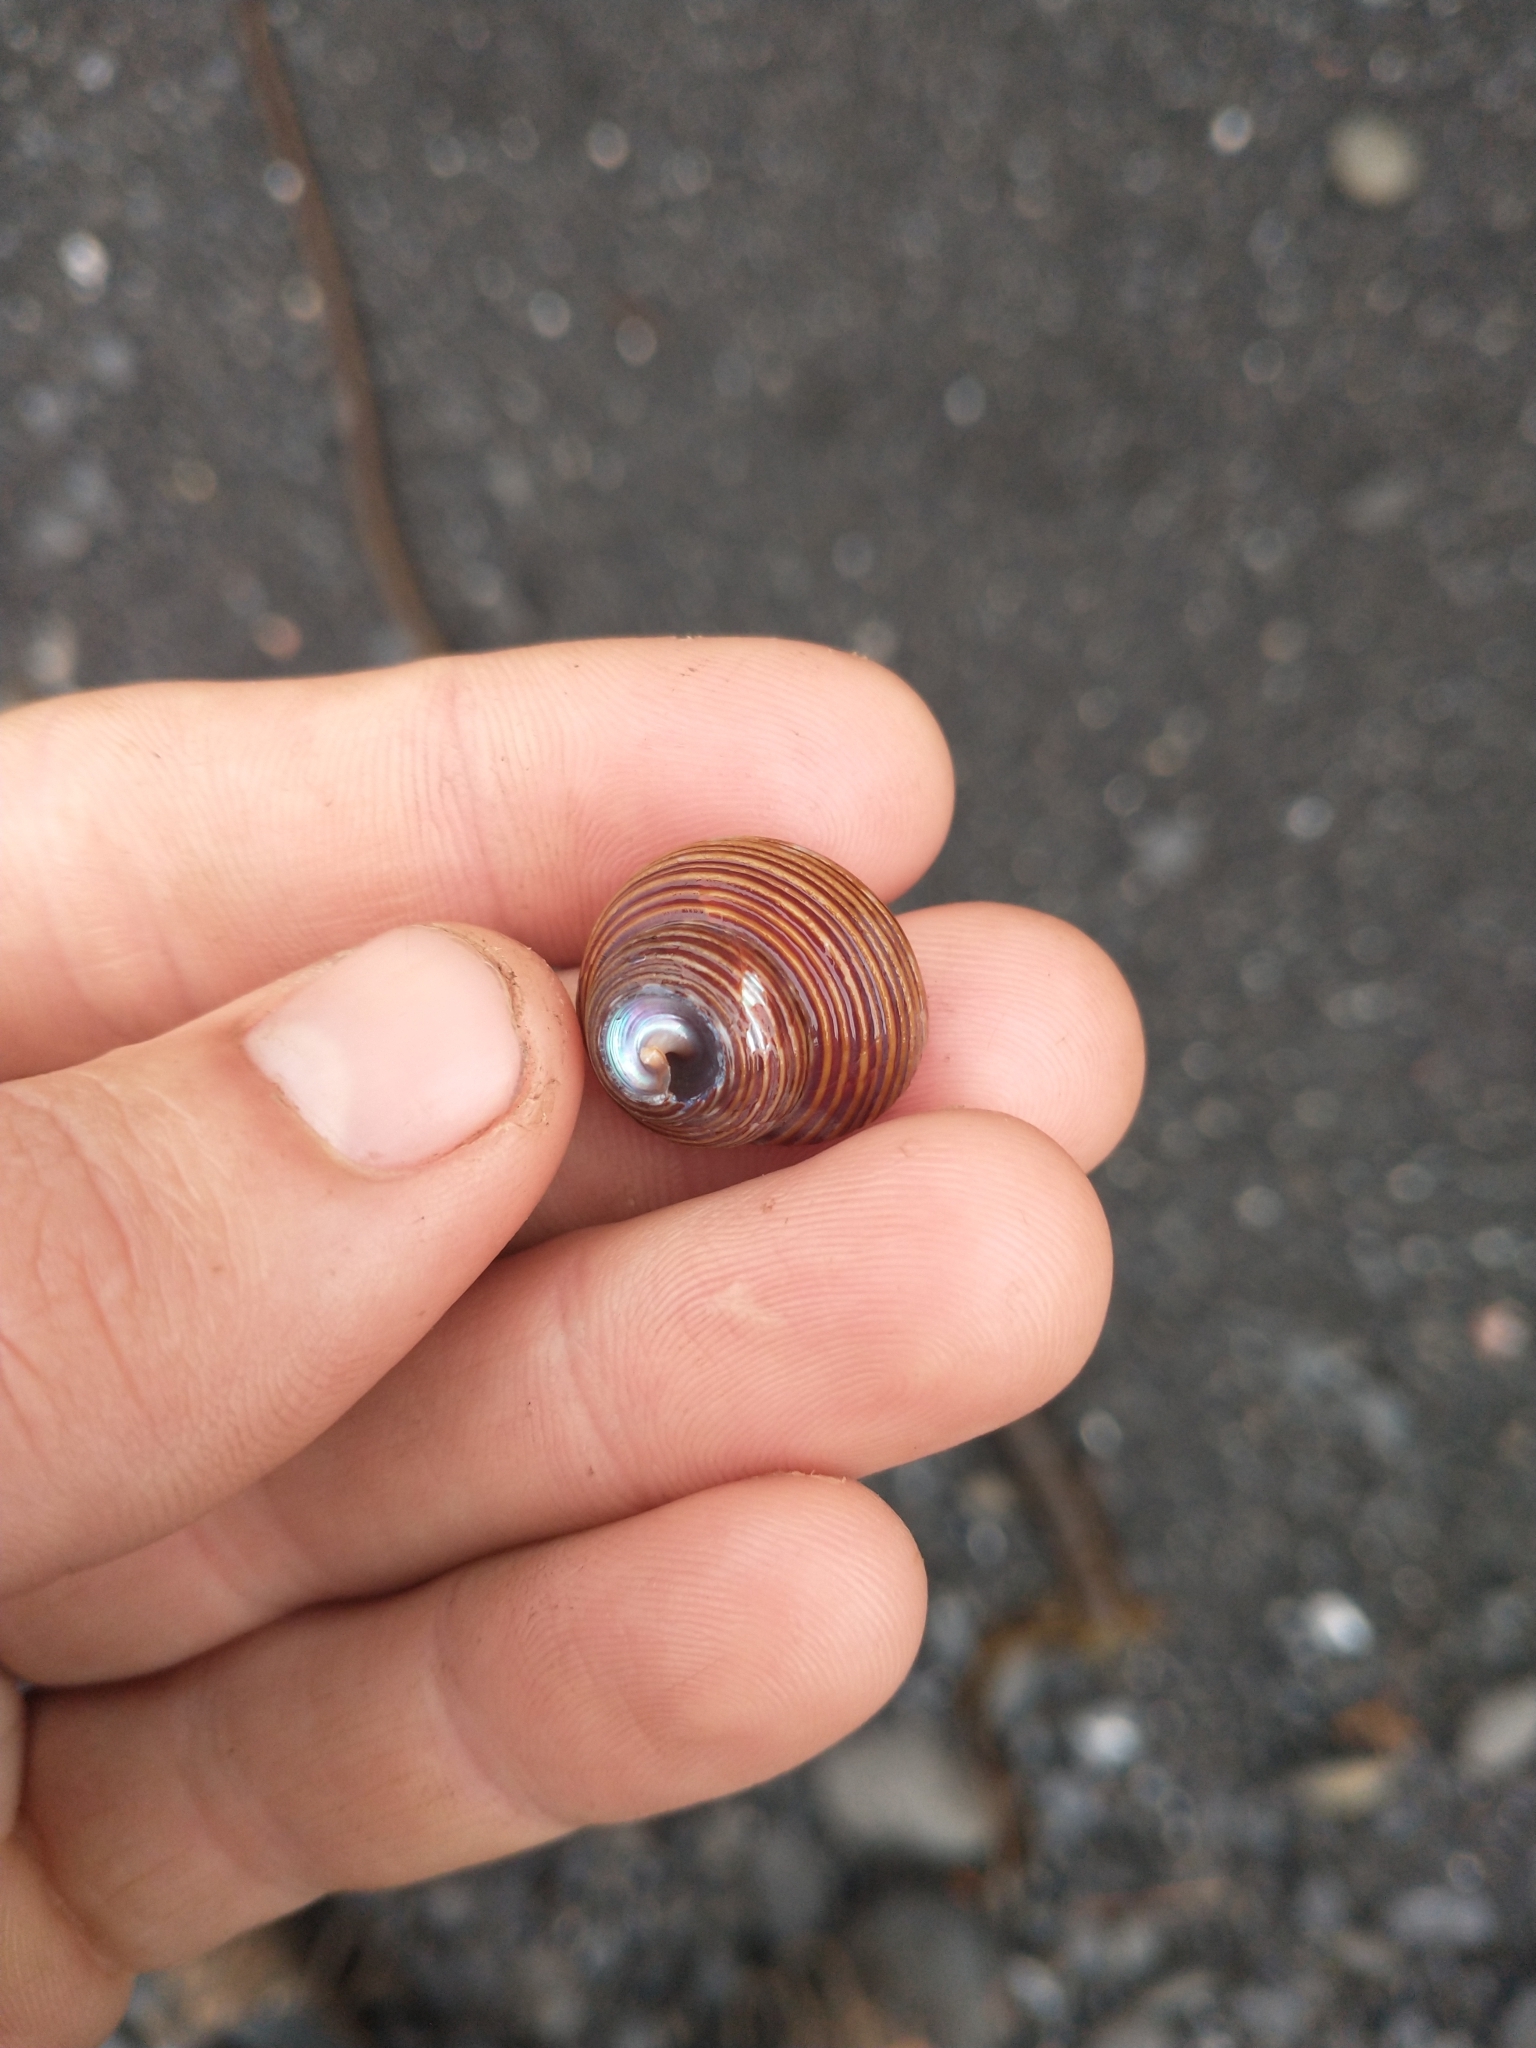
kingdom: Animalia
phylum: Mollusca
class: Gastropoda
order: Trochida
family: Calliostomatidae
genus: Calliostoma
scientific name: Calliostoma ligatum
